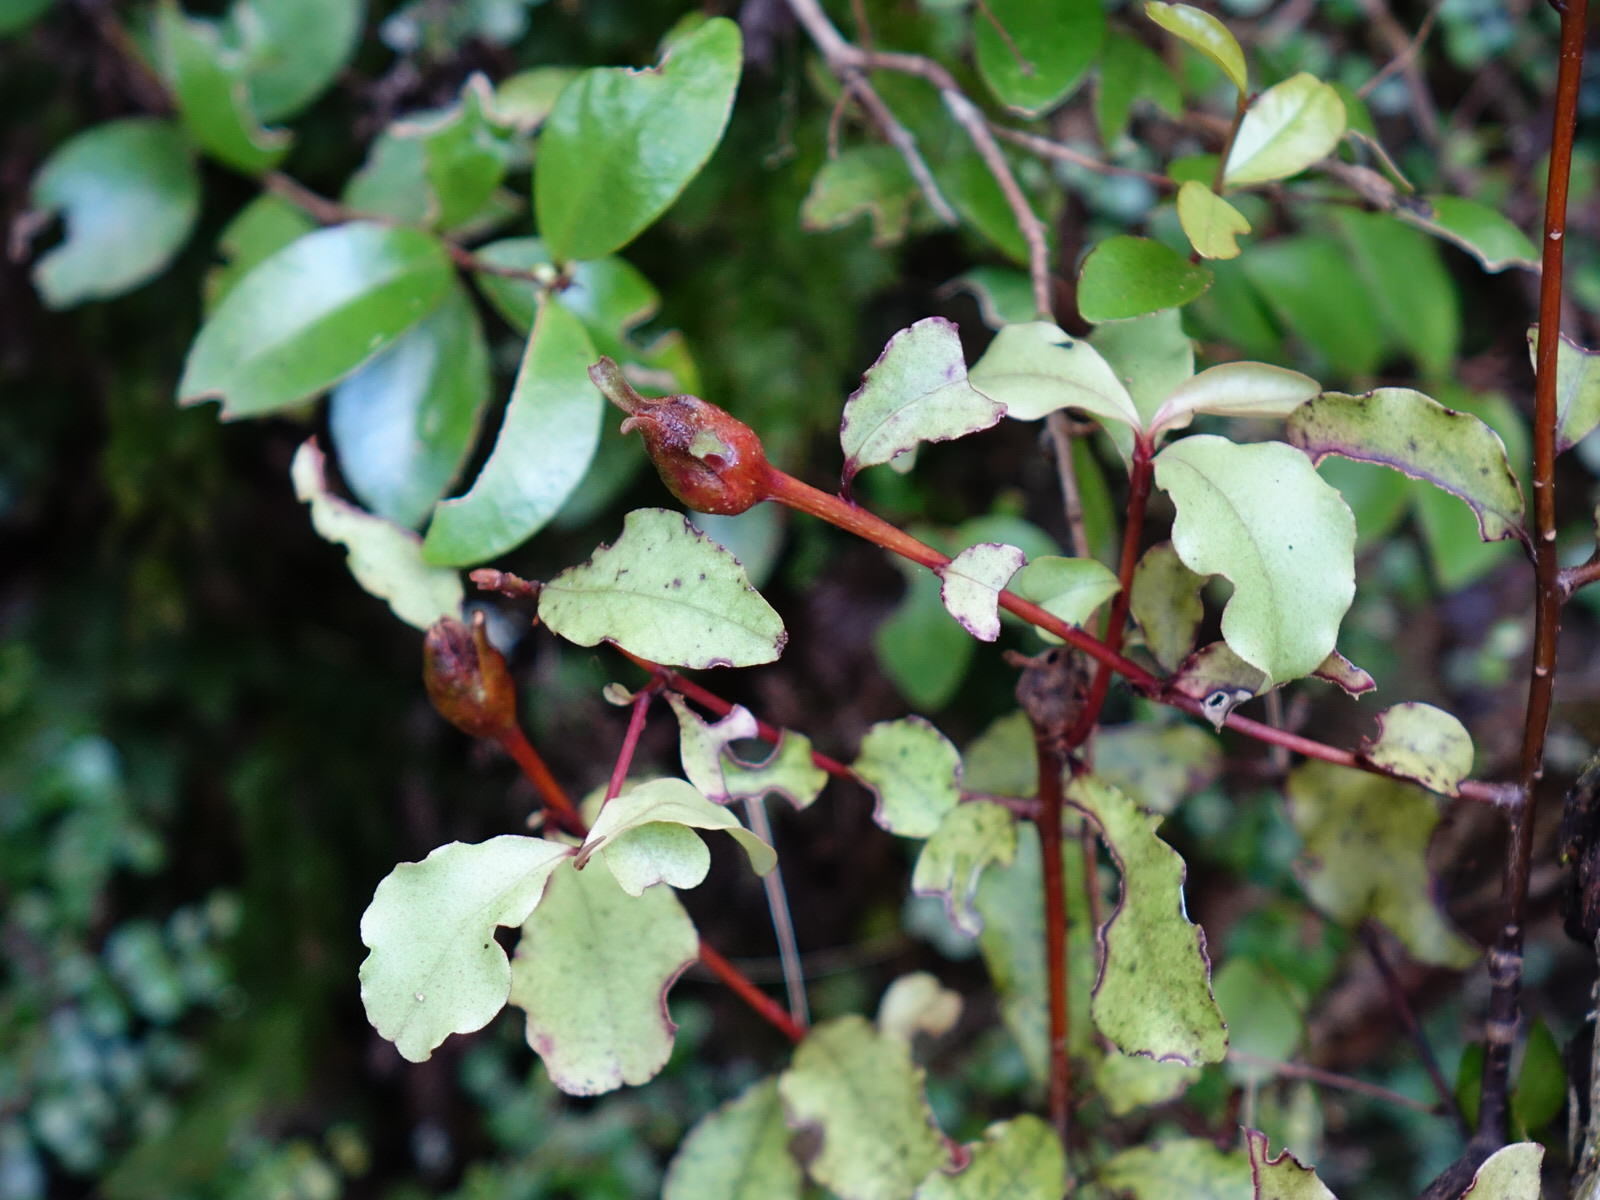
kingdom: Plantae
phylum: Tracheophyta
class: Magnoliopsida
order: Ericales
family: Primulaceae
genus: Myrsine
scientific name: Myrsine australis
